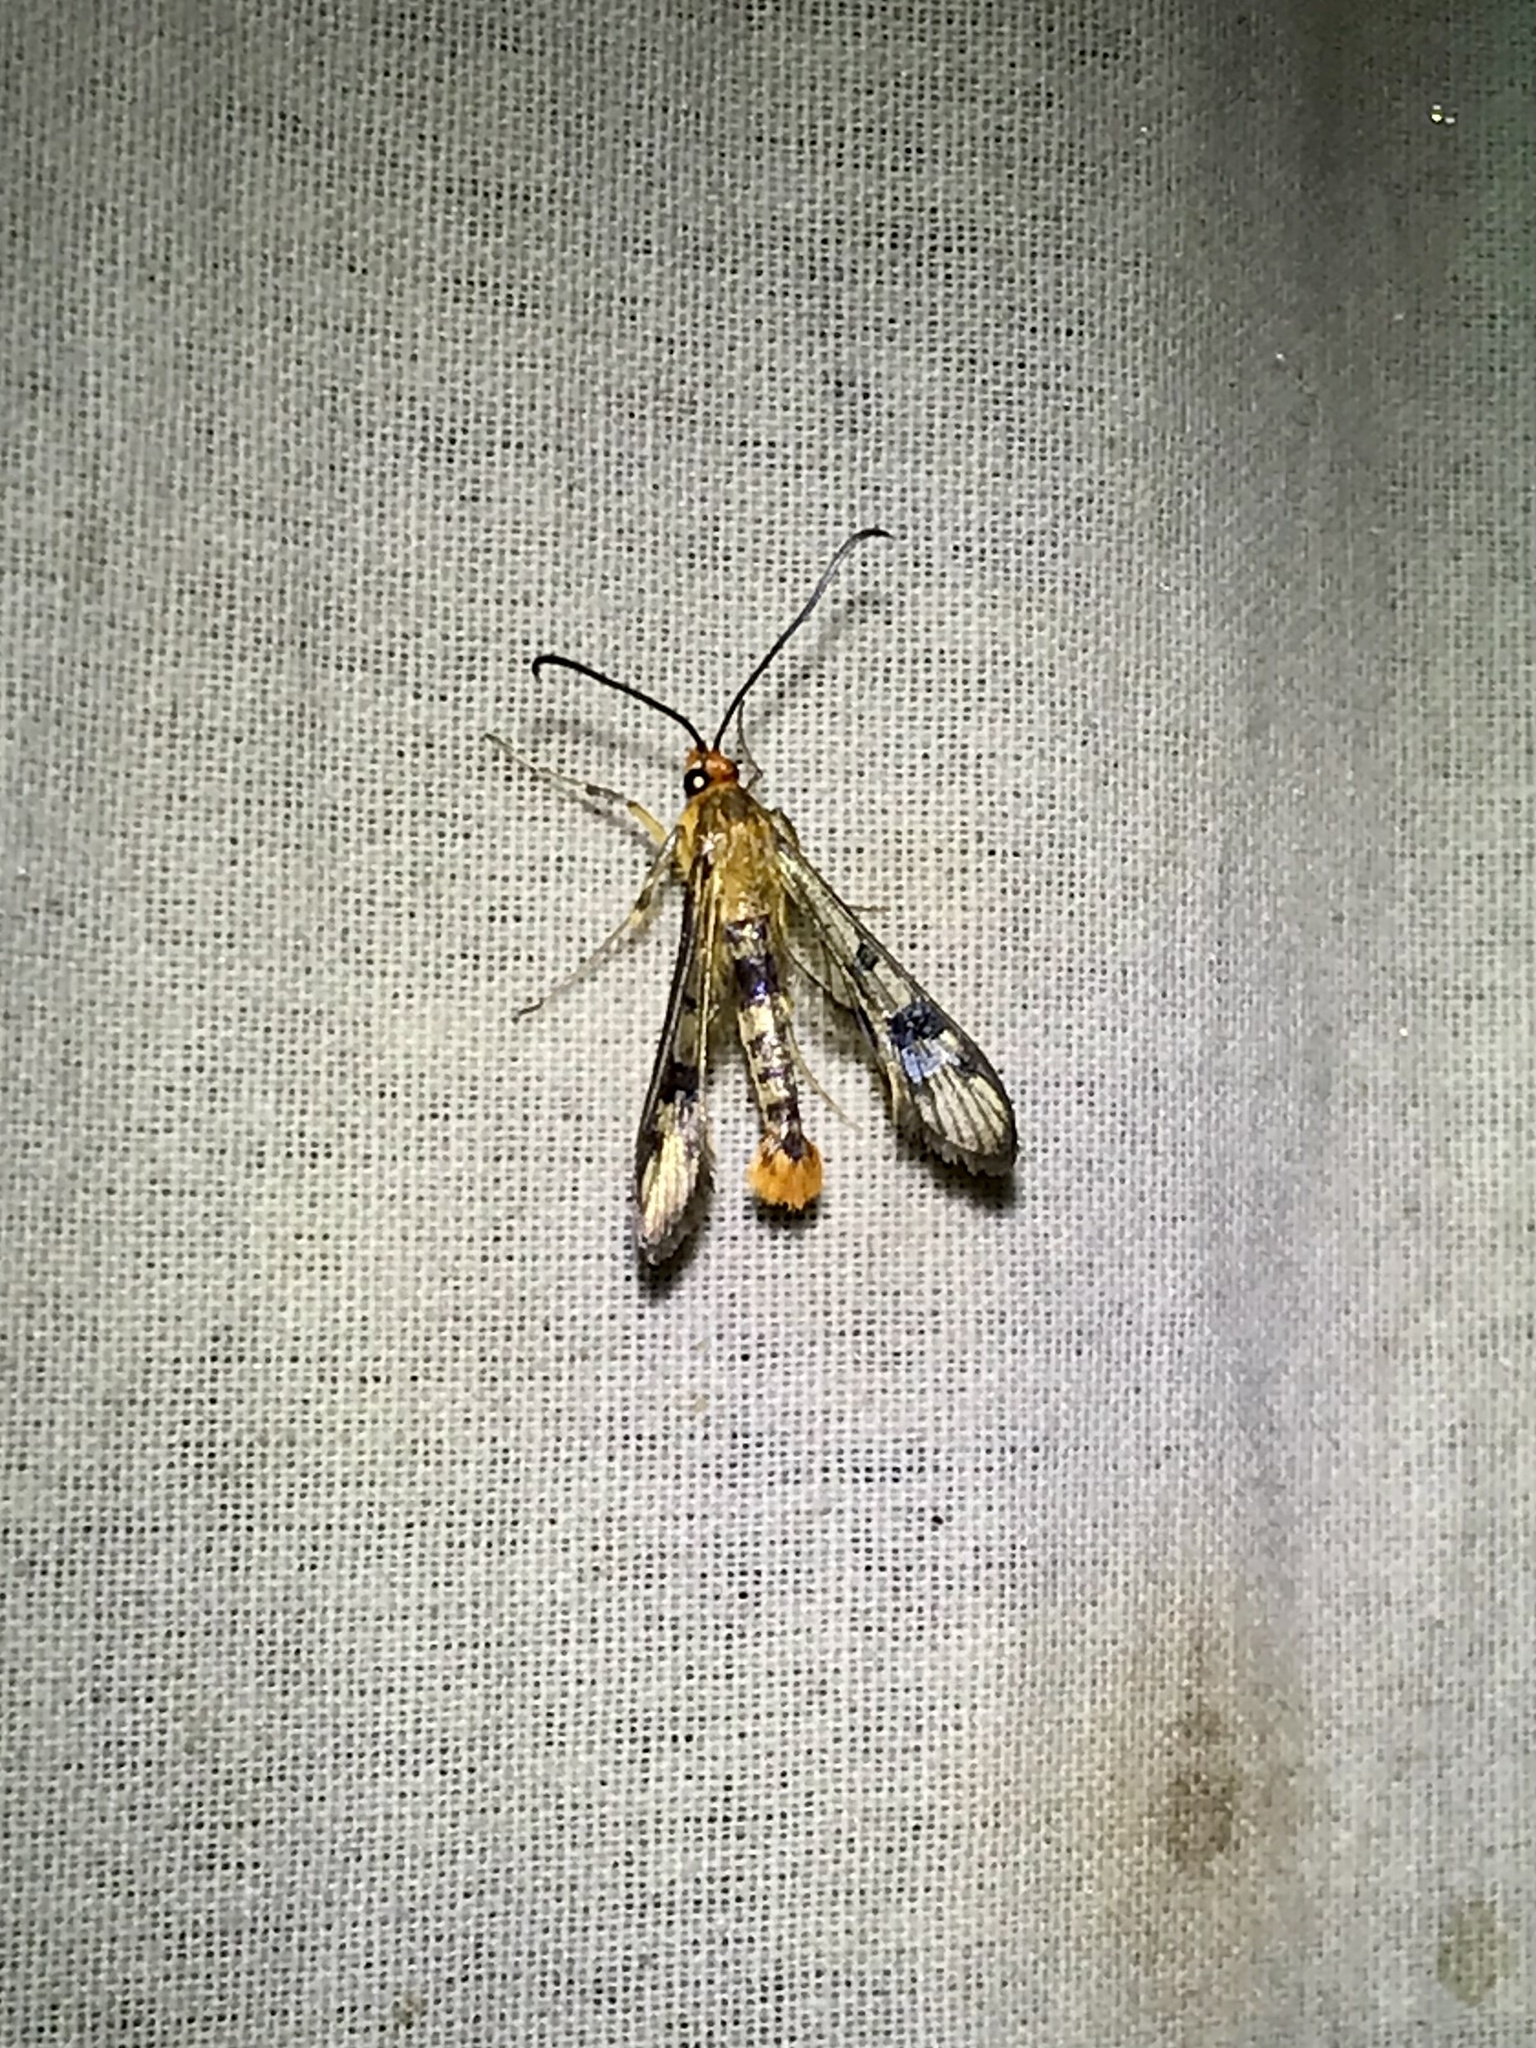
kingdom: Animalia
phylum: Arthropoda
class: Insecta
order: Lepidoptera
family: Sesiidae
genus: Synanthedon
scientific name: Synanthedon acerni
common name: Maple callus borer moth
